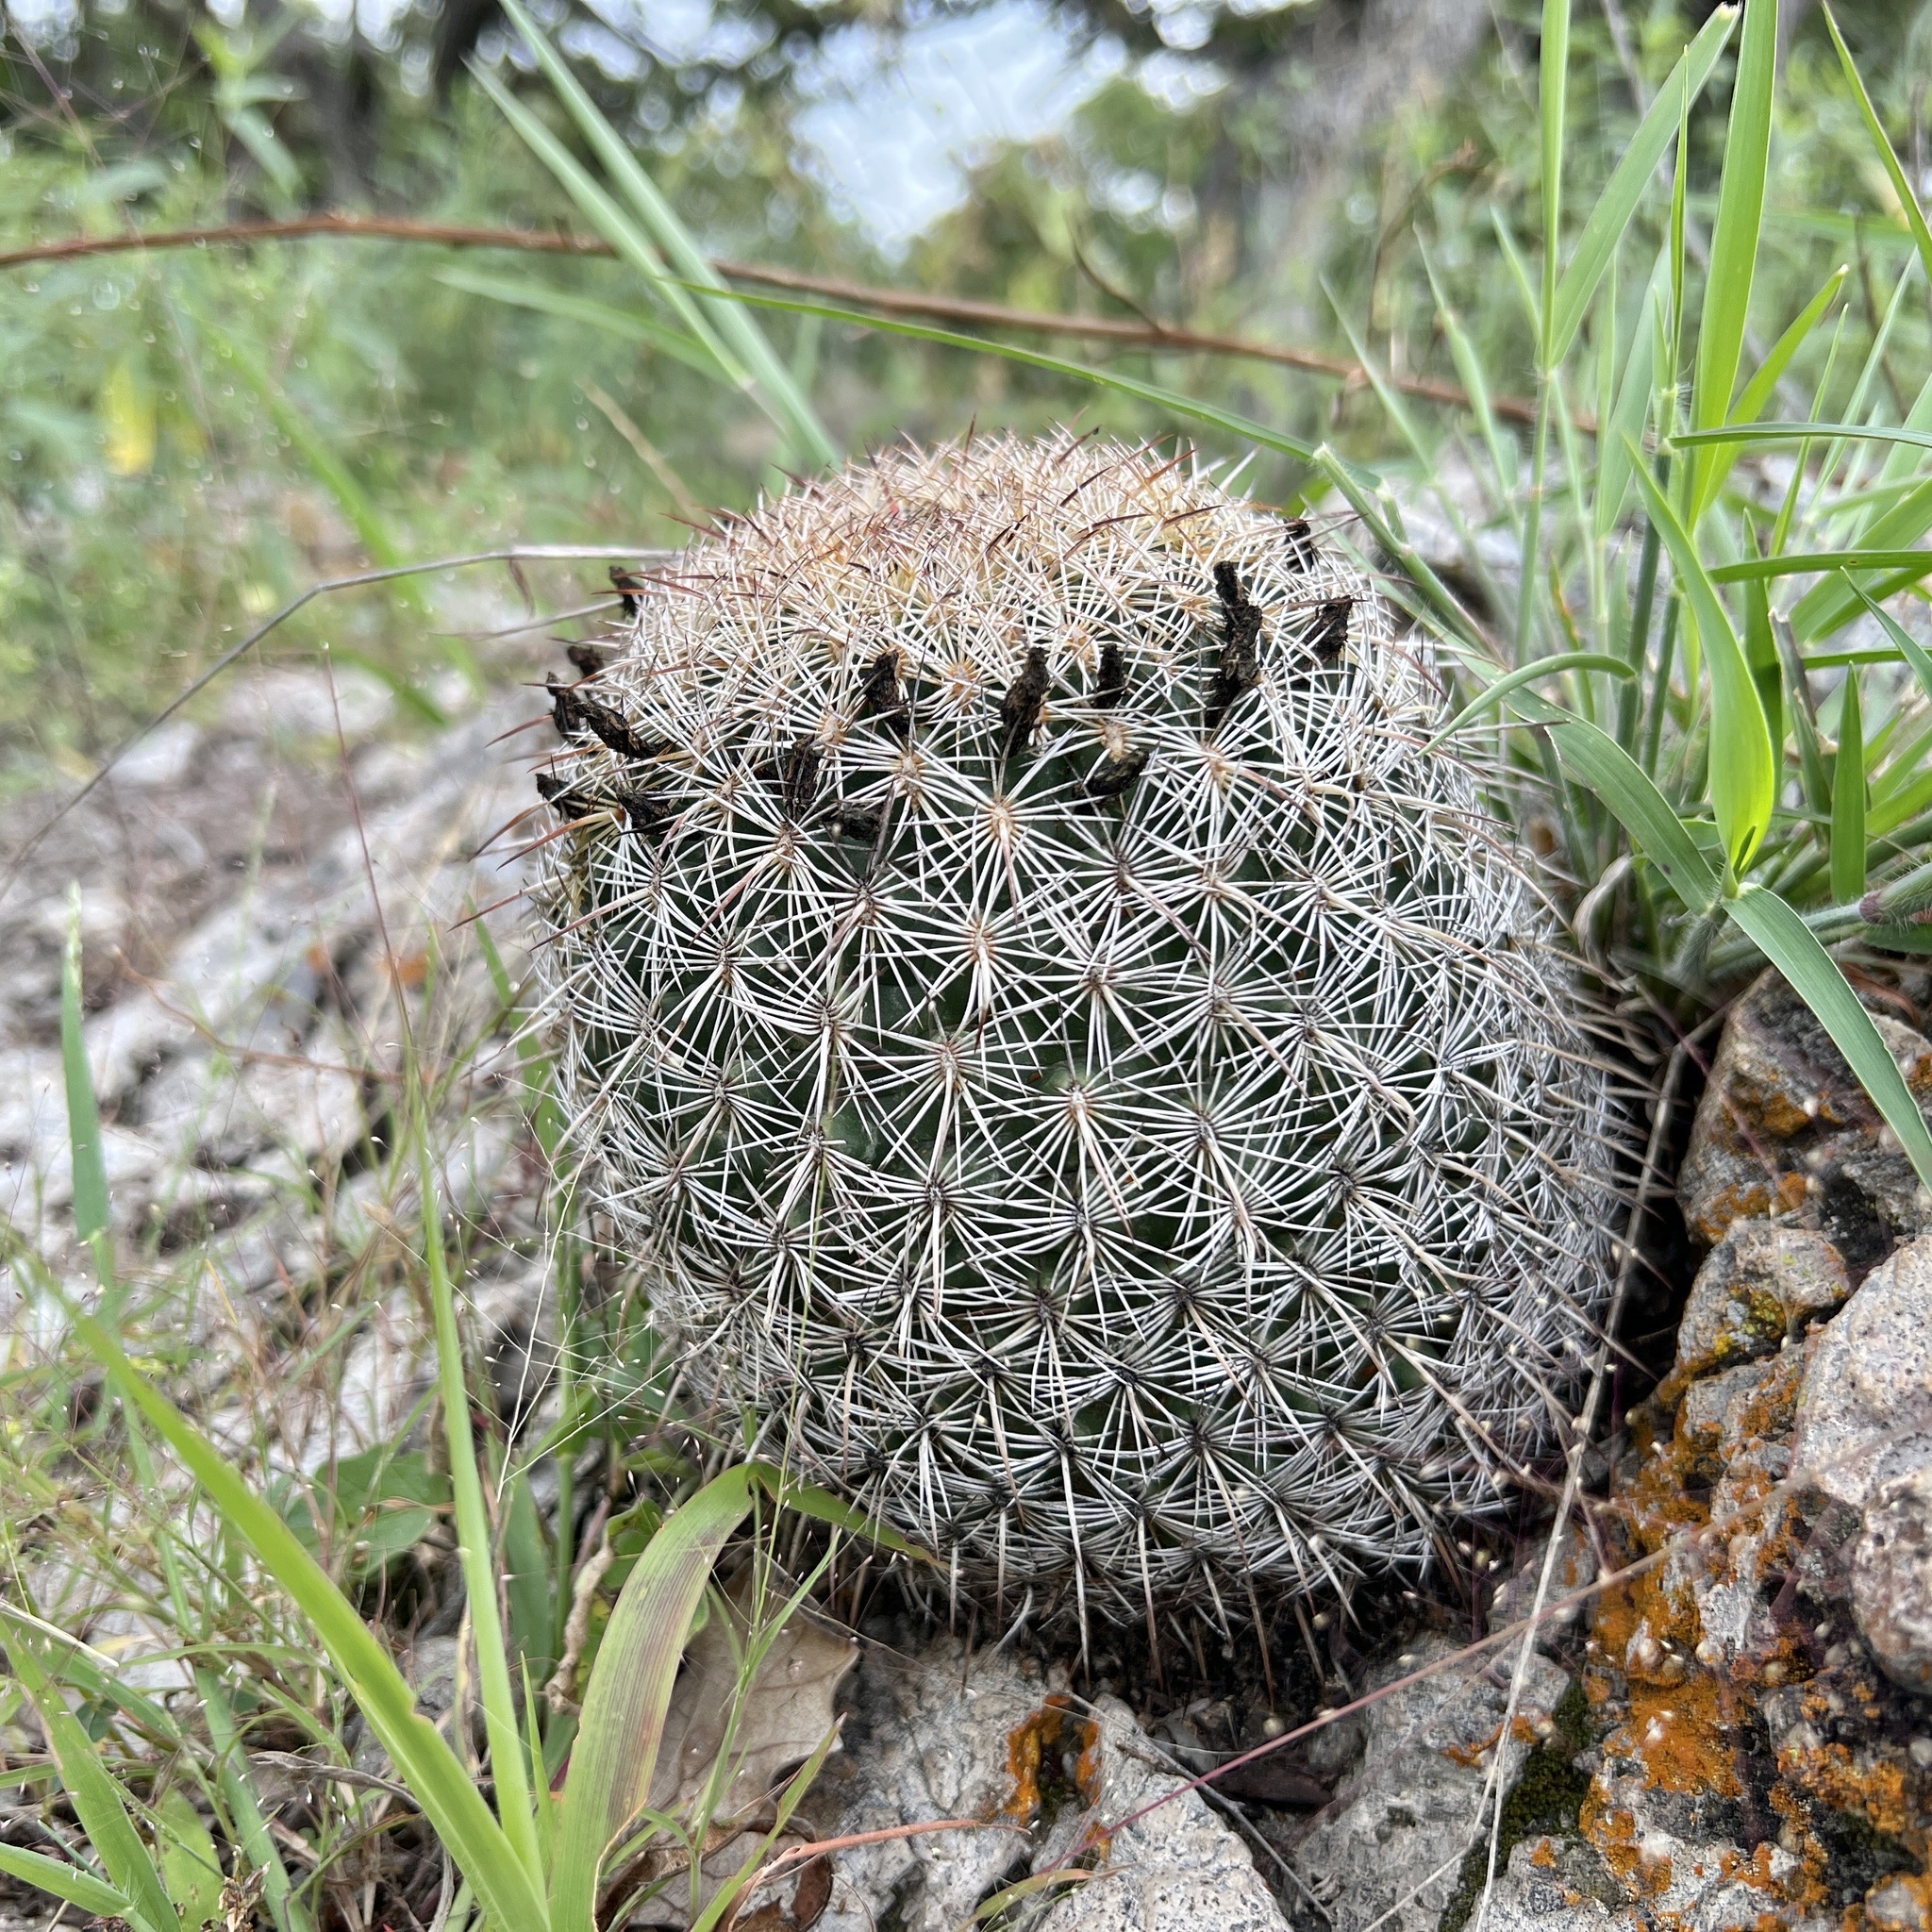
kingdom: Plantae
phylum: Tracheophyta
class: Magnoliopsida
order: Caryophyllales
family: Cactaceae
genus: Coryphantha
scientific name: Coryphantha recurvata
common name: Golden chested beehive
